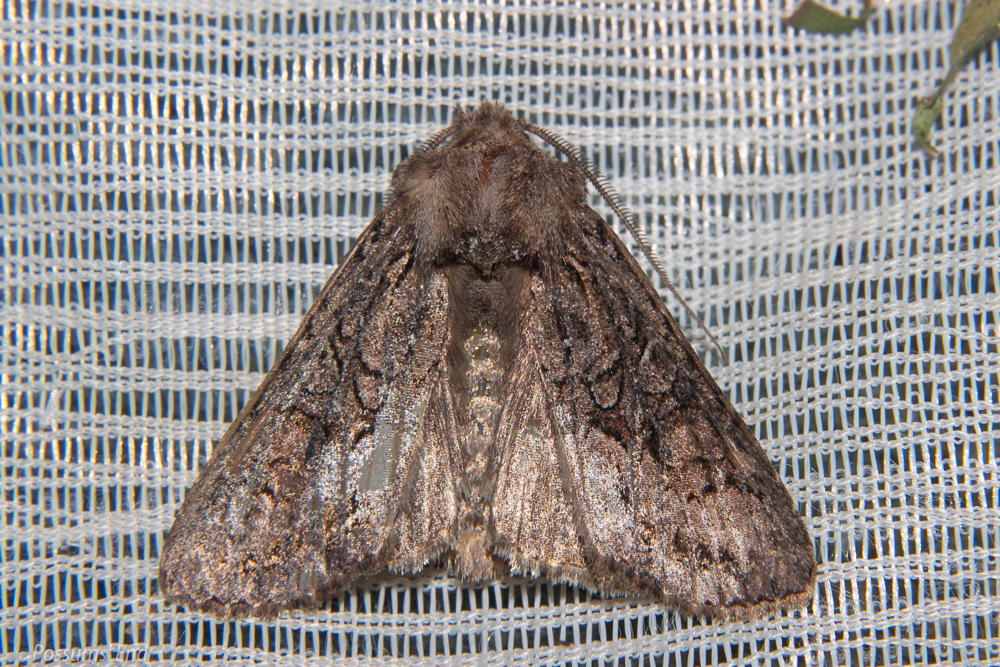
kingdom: Animalia
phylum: Arthropoda
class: Insecta
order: Lepidoptera
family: Noctuidae
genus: Ichneutica
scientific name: Ichneutica mutans
